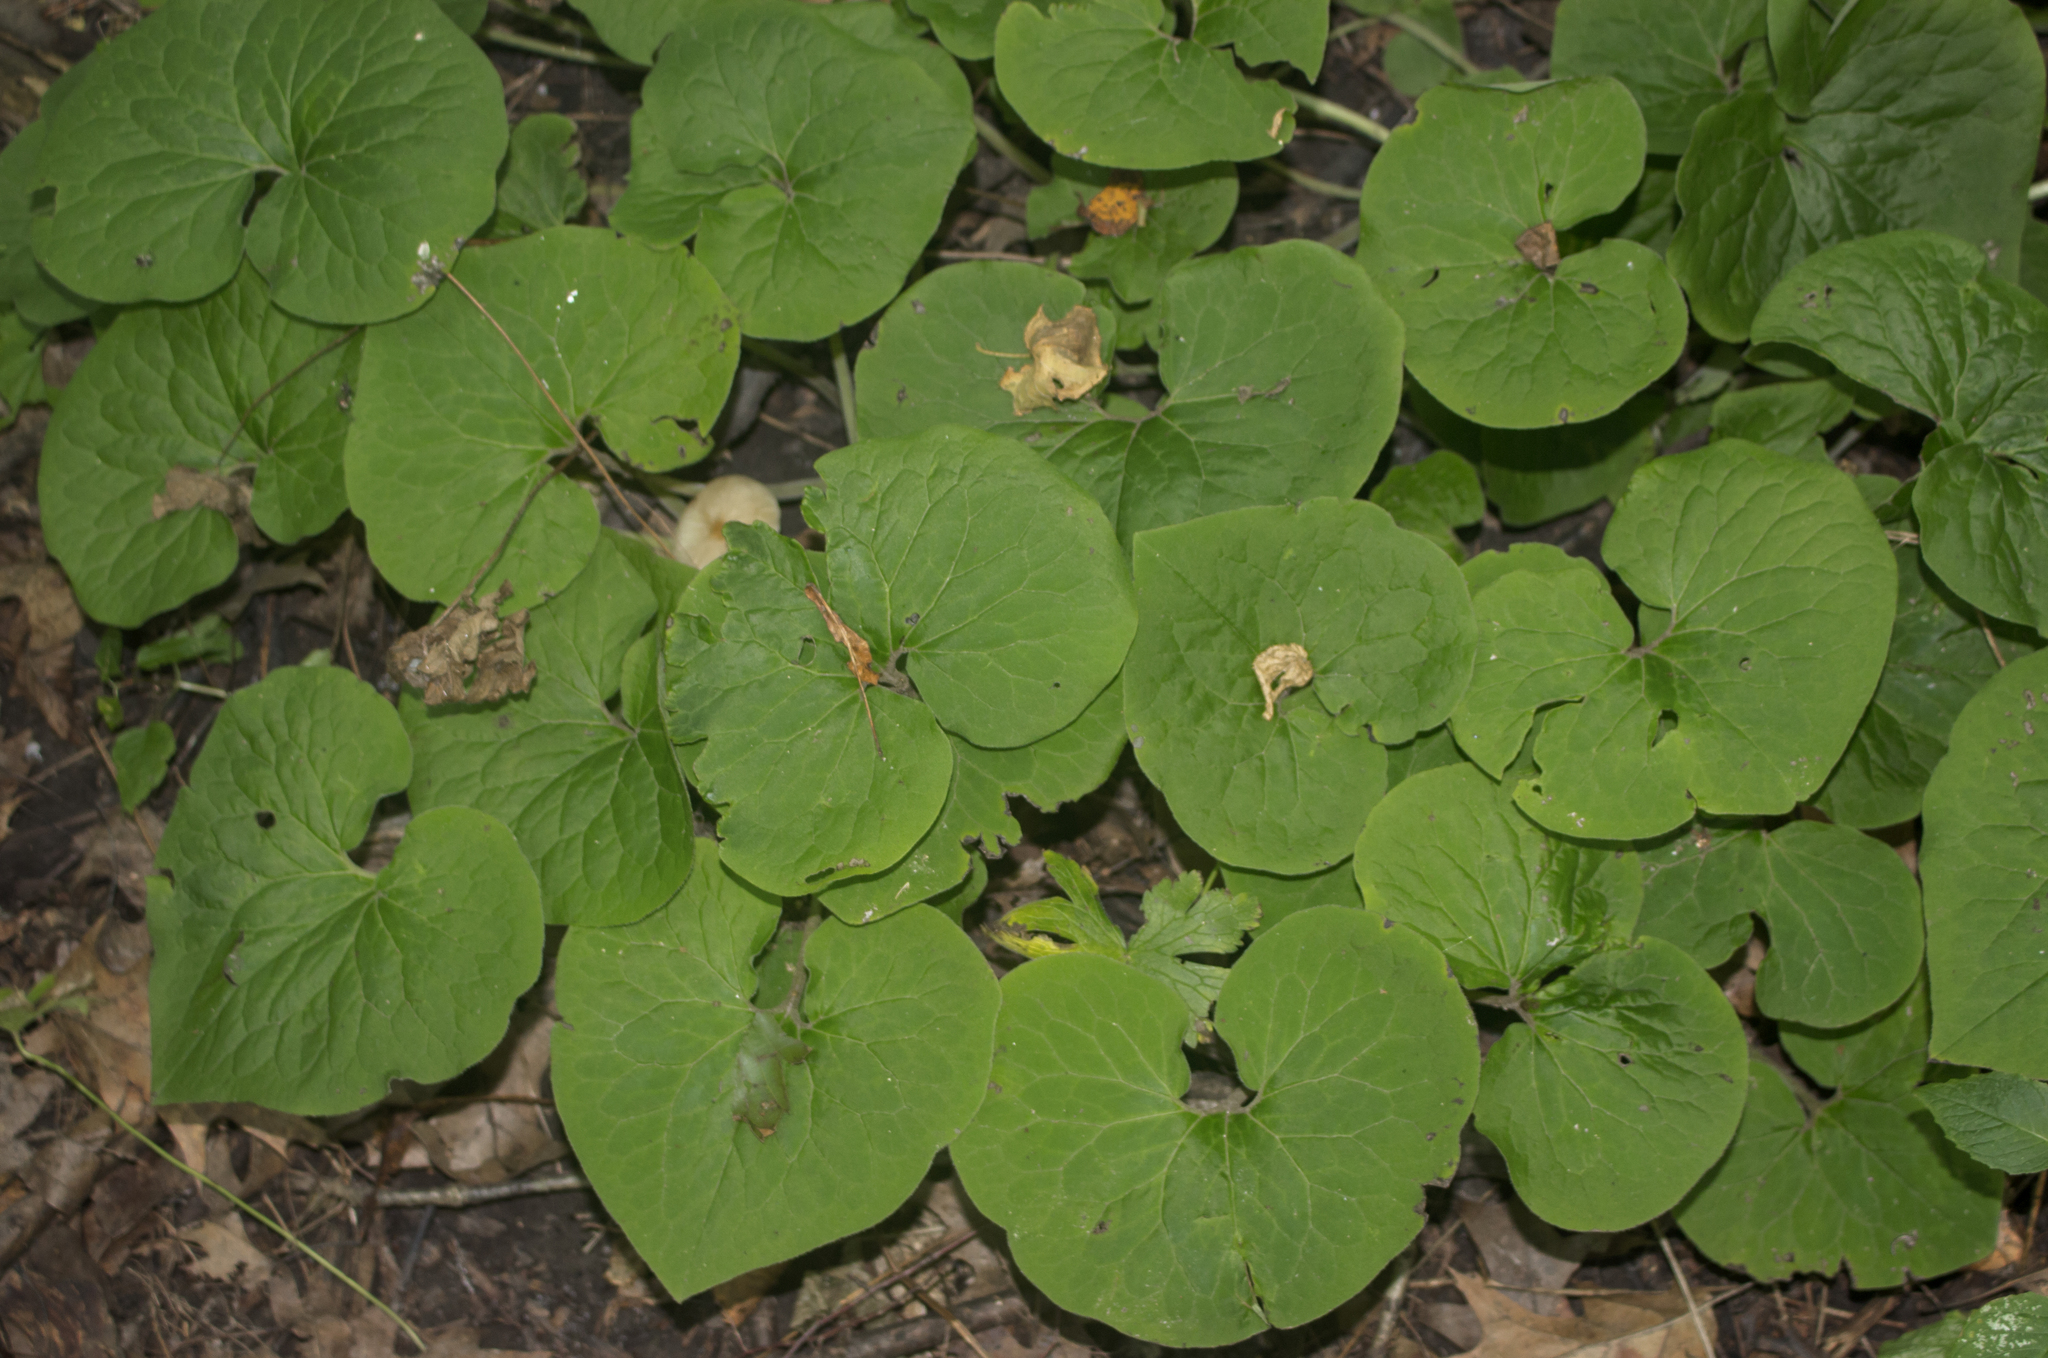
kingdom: Plantae
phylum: Tracheophyta
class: Magnoliopsida
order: Piperales
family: Aristolochiaceae
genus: Asarum
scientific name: Asarum canadense
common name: Wild ginger
